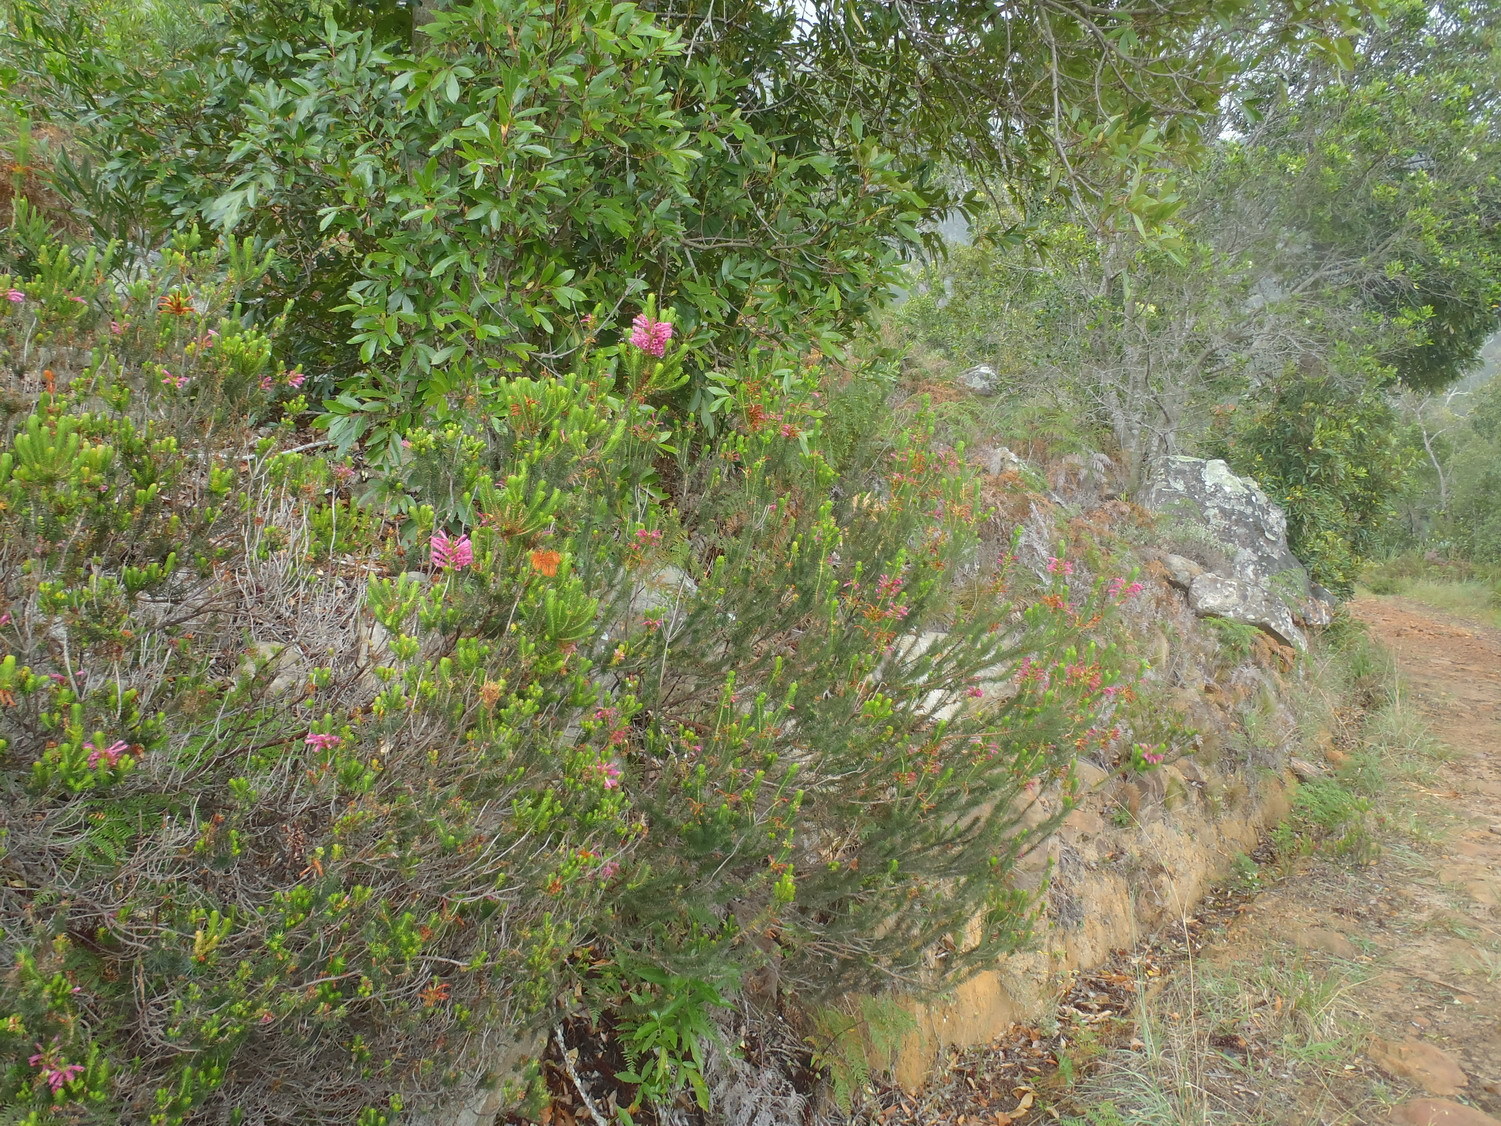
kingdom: Plantae
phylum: Tracheophyta
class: Magnoliopsida
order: Ericales
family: Ericaceae
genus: Erica
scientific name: Erica abietina
